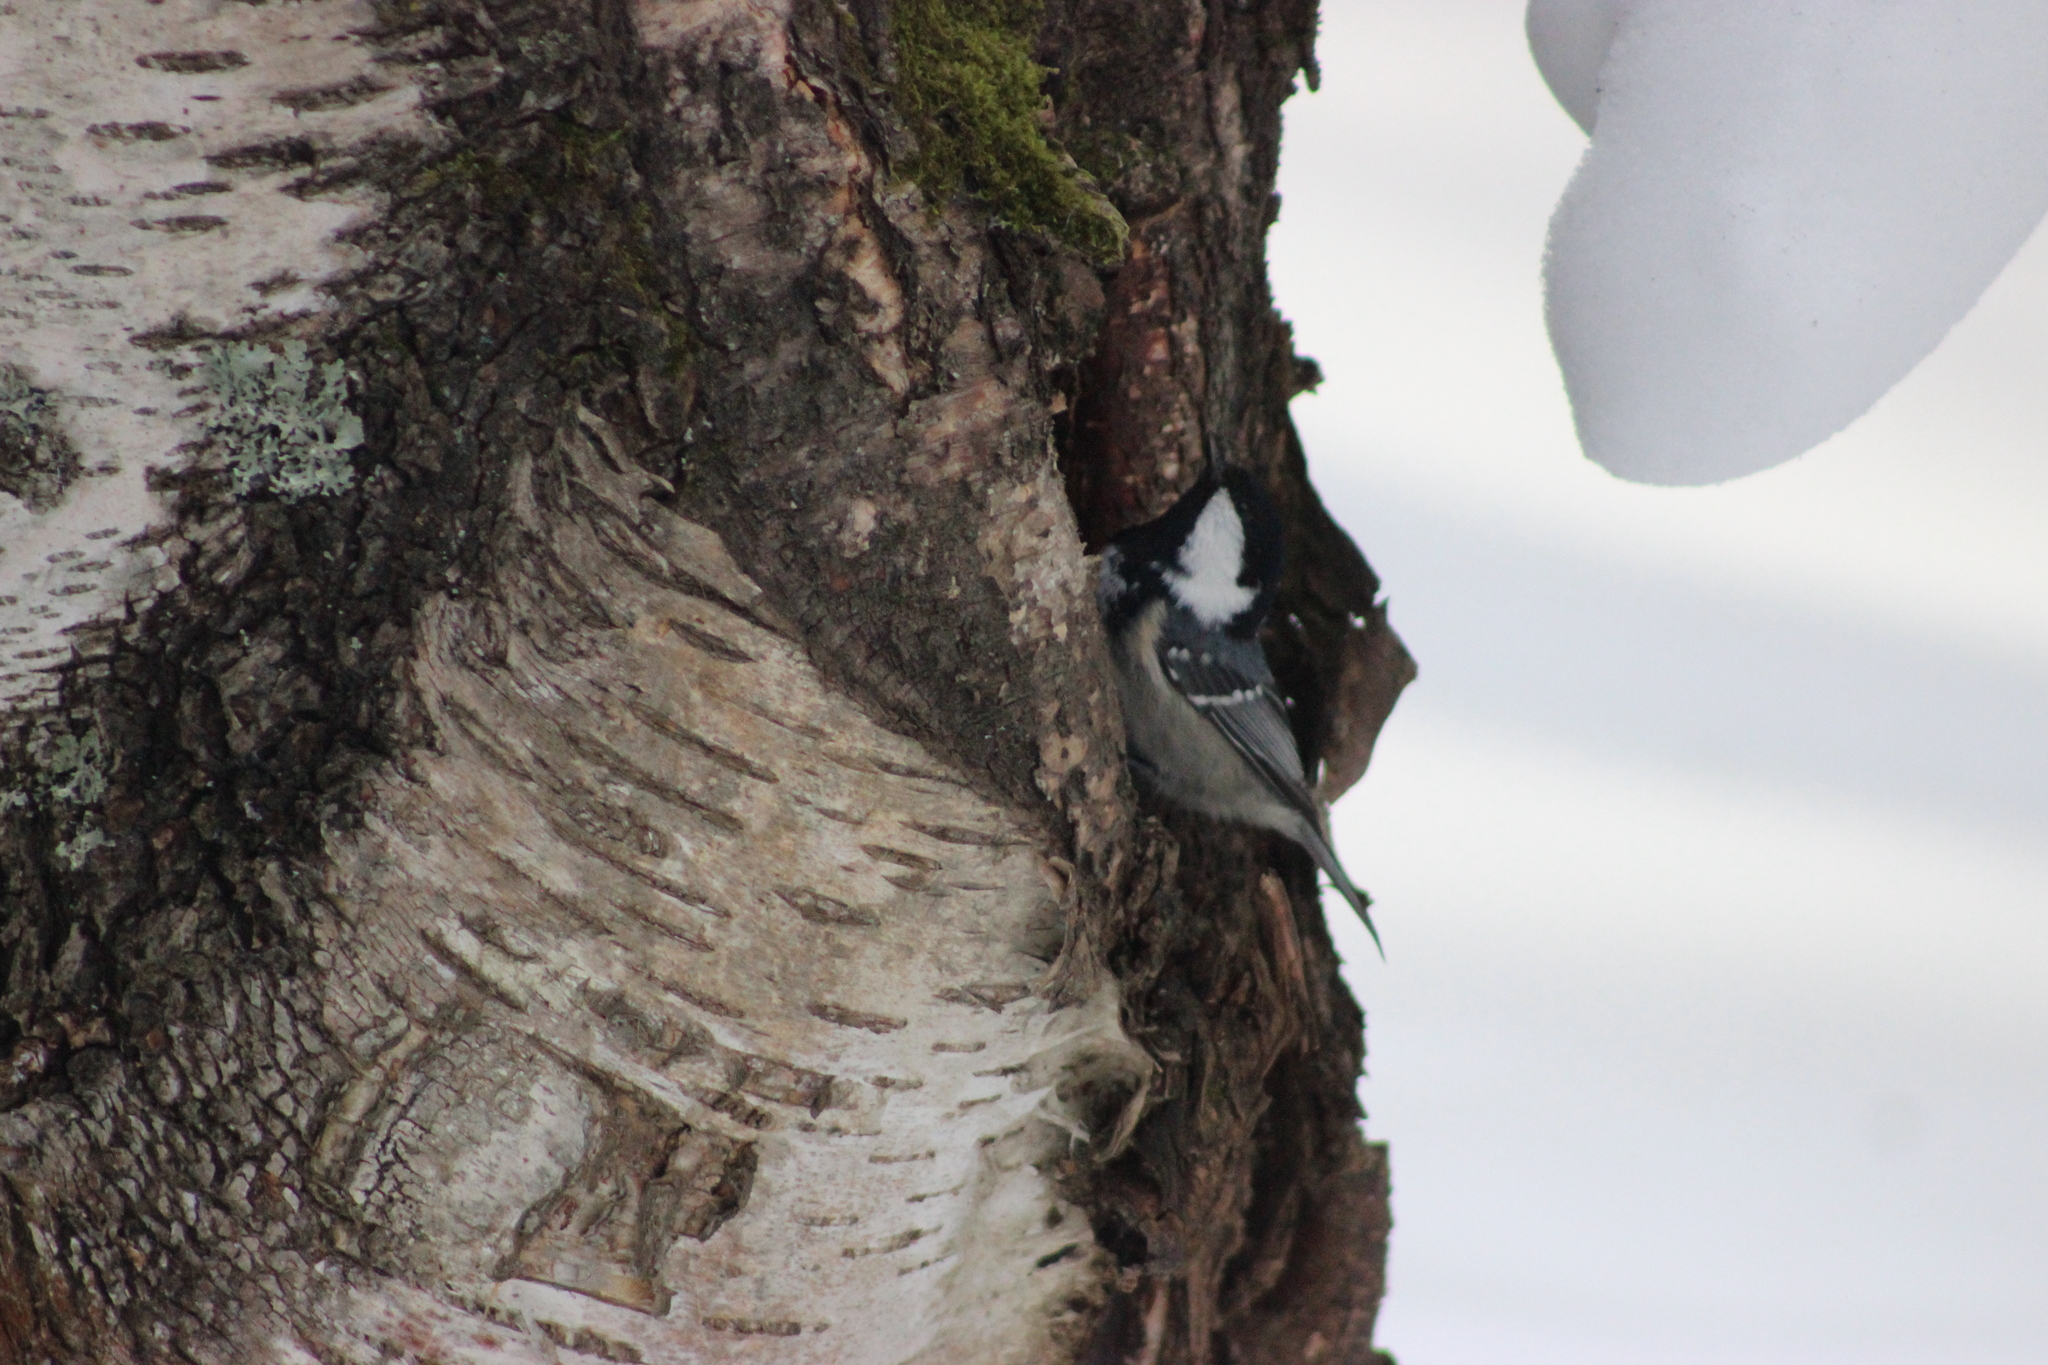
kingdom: Animalia
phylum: Chordata
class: Aves
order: Passeriformes
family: Paridae
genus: Periparus
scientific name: Periparus ater
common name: Coal tit
